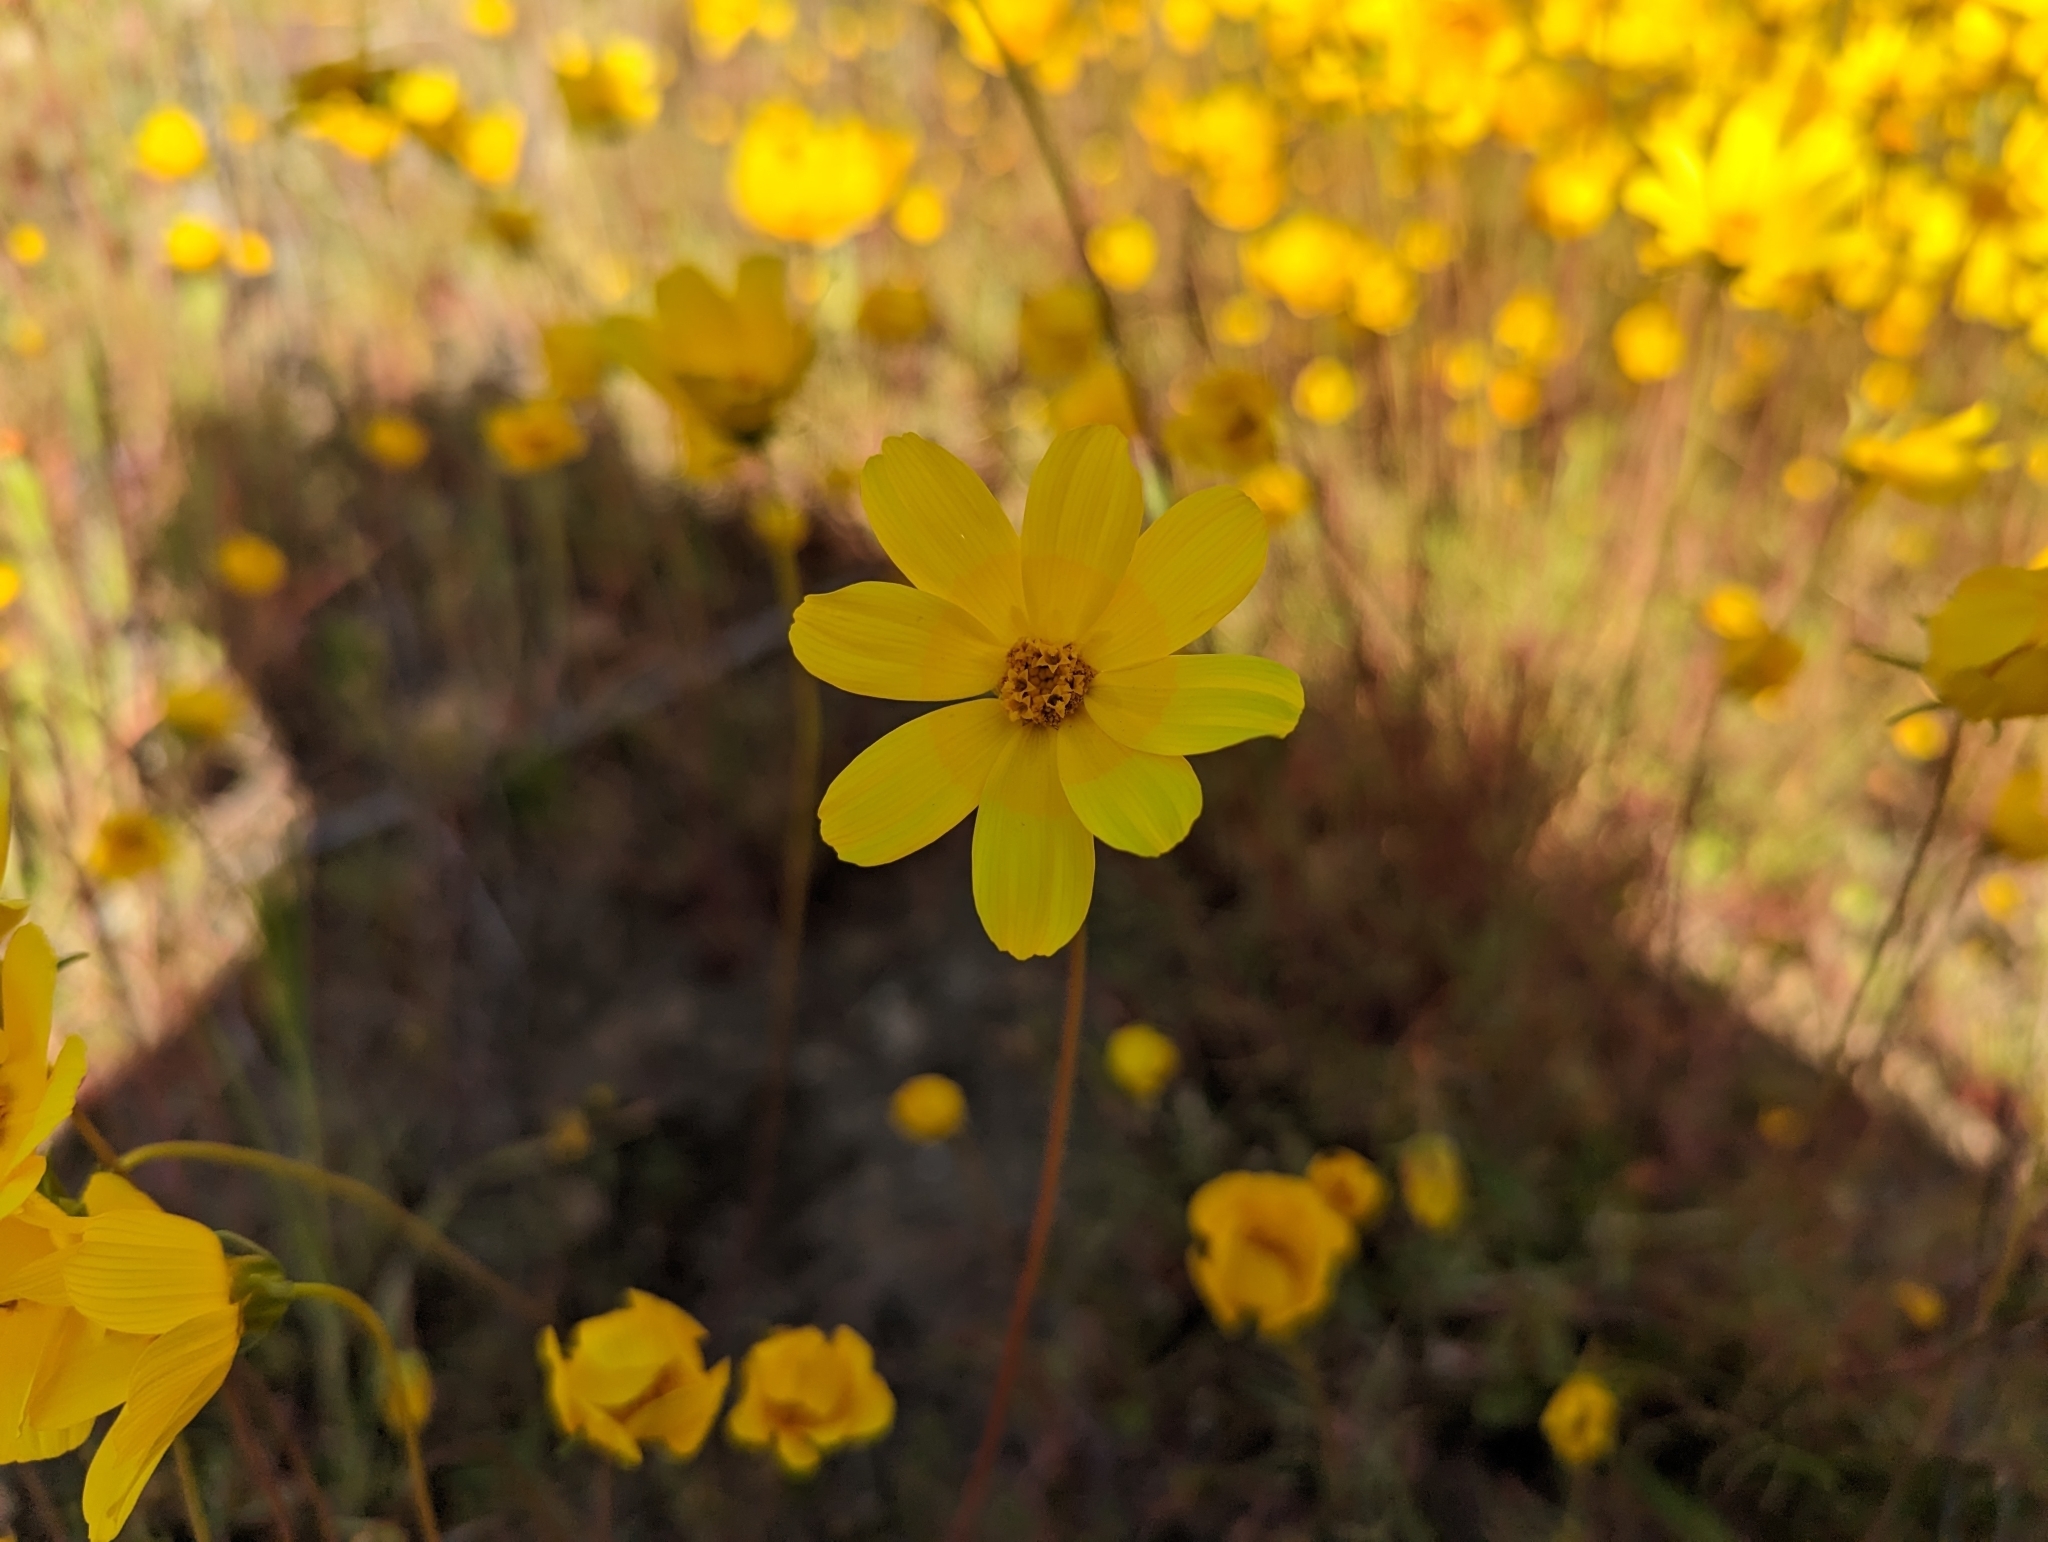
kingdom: Plantae
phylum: Tracheophyta
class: Magnoliopsida
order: Asterales
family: Asteraceae
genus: Coreopsis
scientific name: Coreopsis bigelovii
